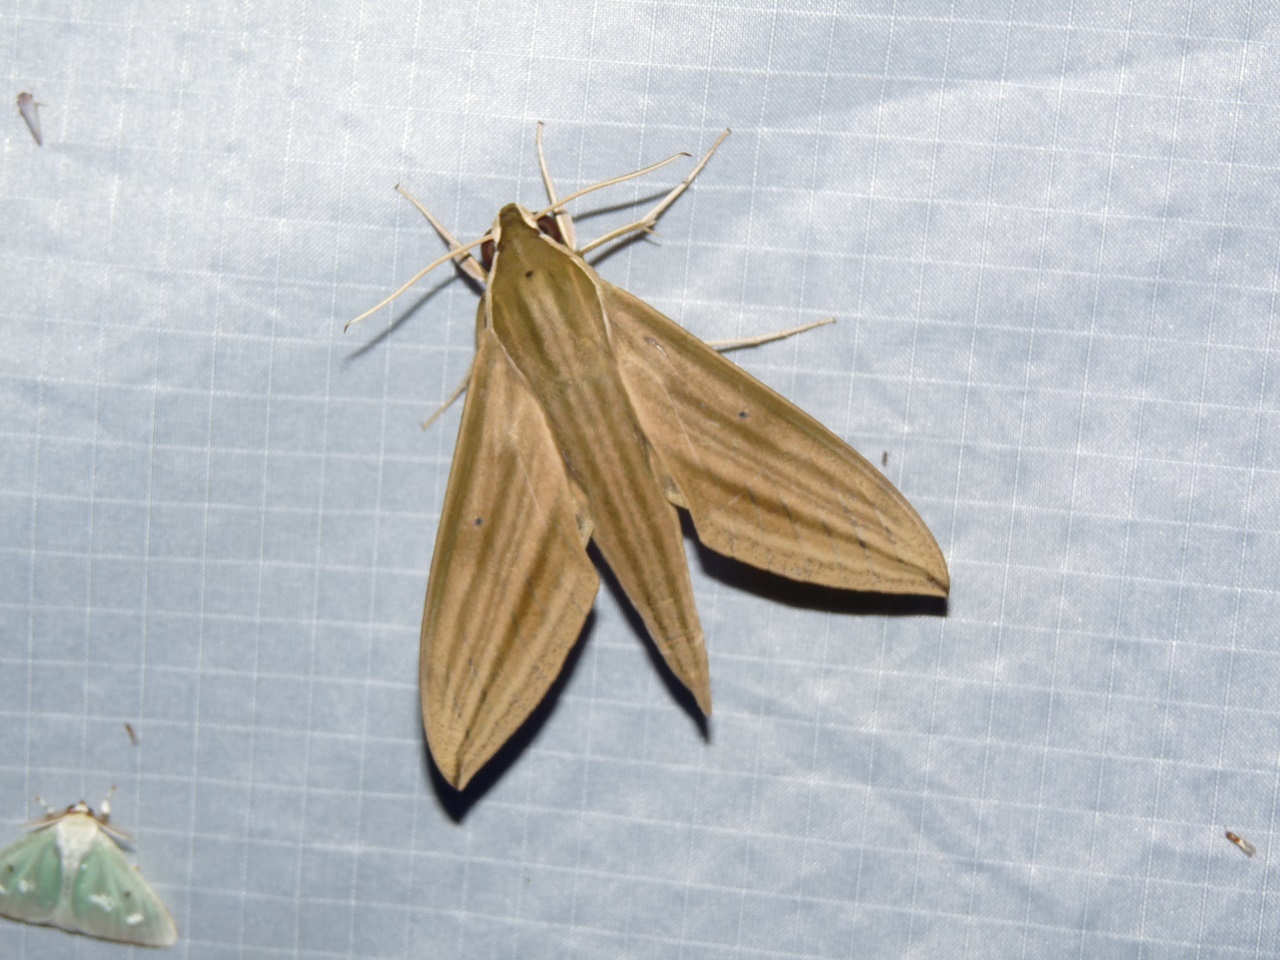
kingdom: Animalia
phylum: Arthropoda
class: Insecta
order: Lepidoptera
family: Sphingidae
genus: Theretra
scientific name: Theretra rhesus
